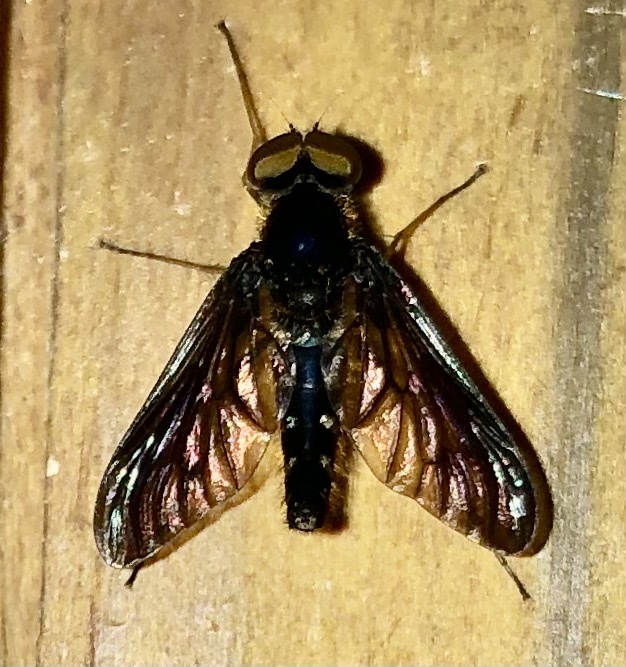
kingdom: Animalia
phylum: Arthropoda
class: Insecta
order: Diptera
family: Rhagionidae
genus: Chrysopilus
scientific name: Chrysopilus connexus
